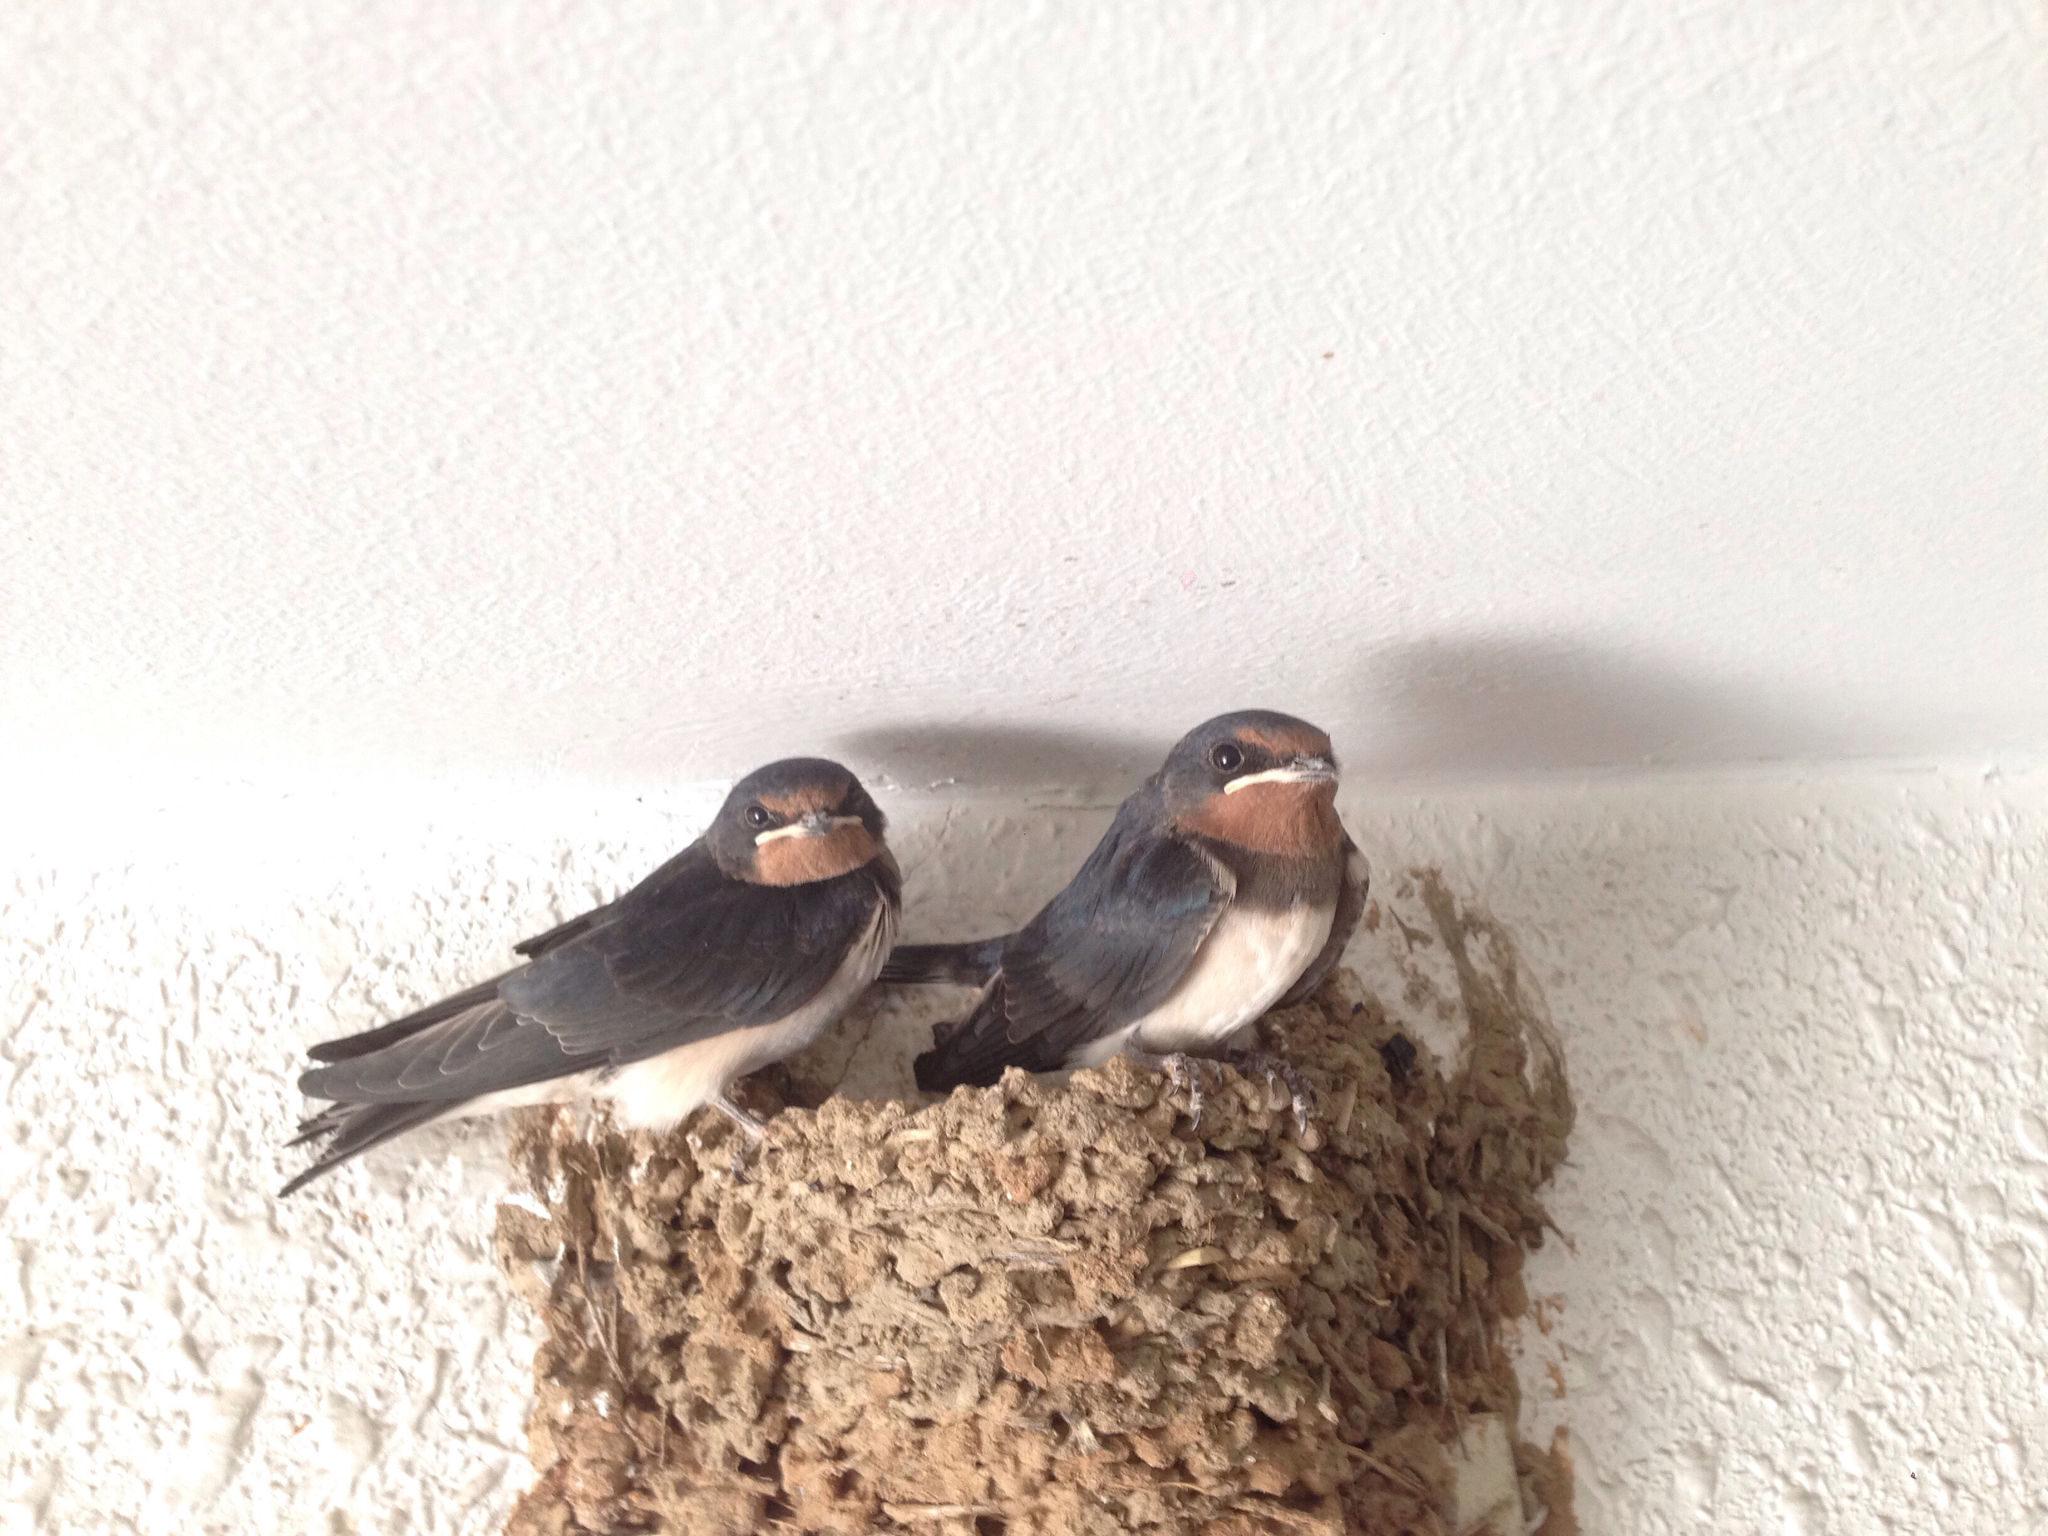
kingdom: Animalia
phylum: Chordata
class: Aves
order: Passeriformes
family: Hirundinidae
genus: Hirundo
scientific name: Hirundo rustica
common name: Barn swallow
